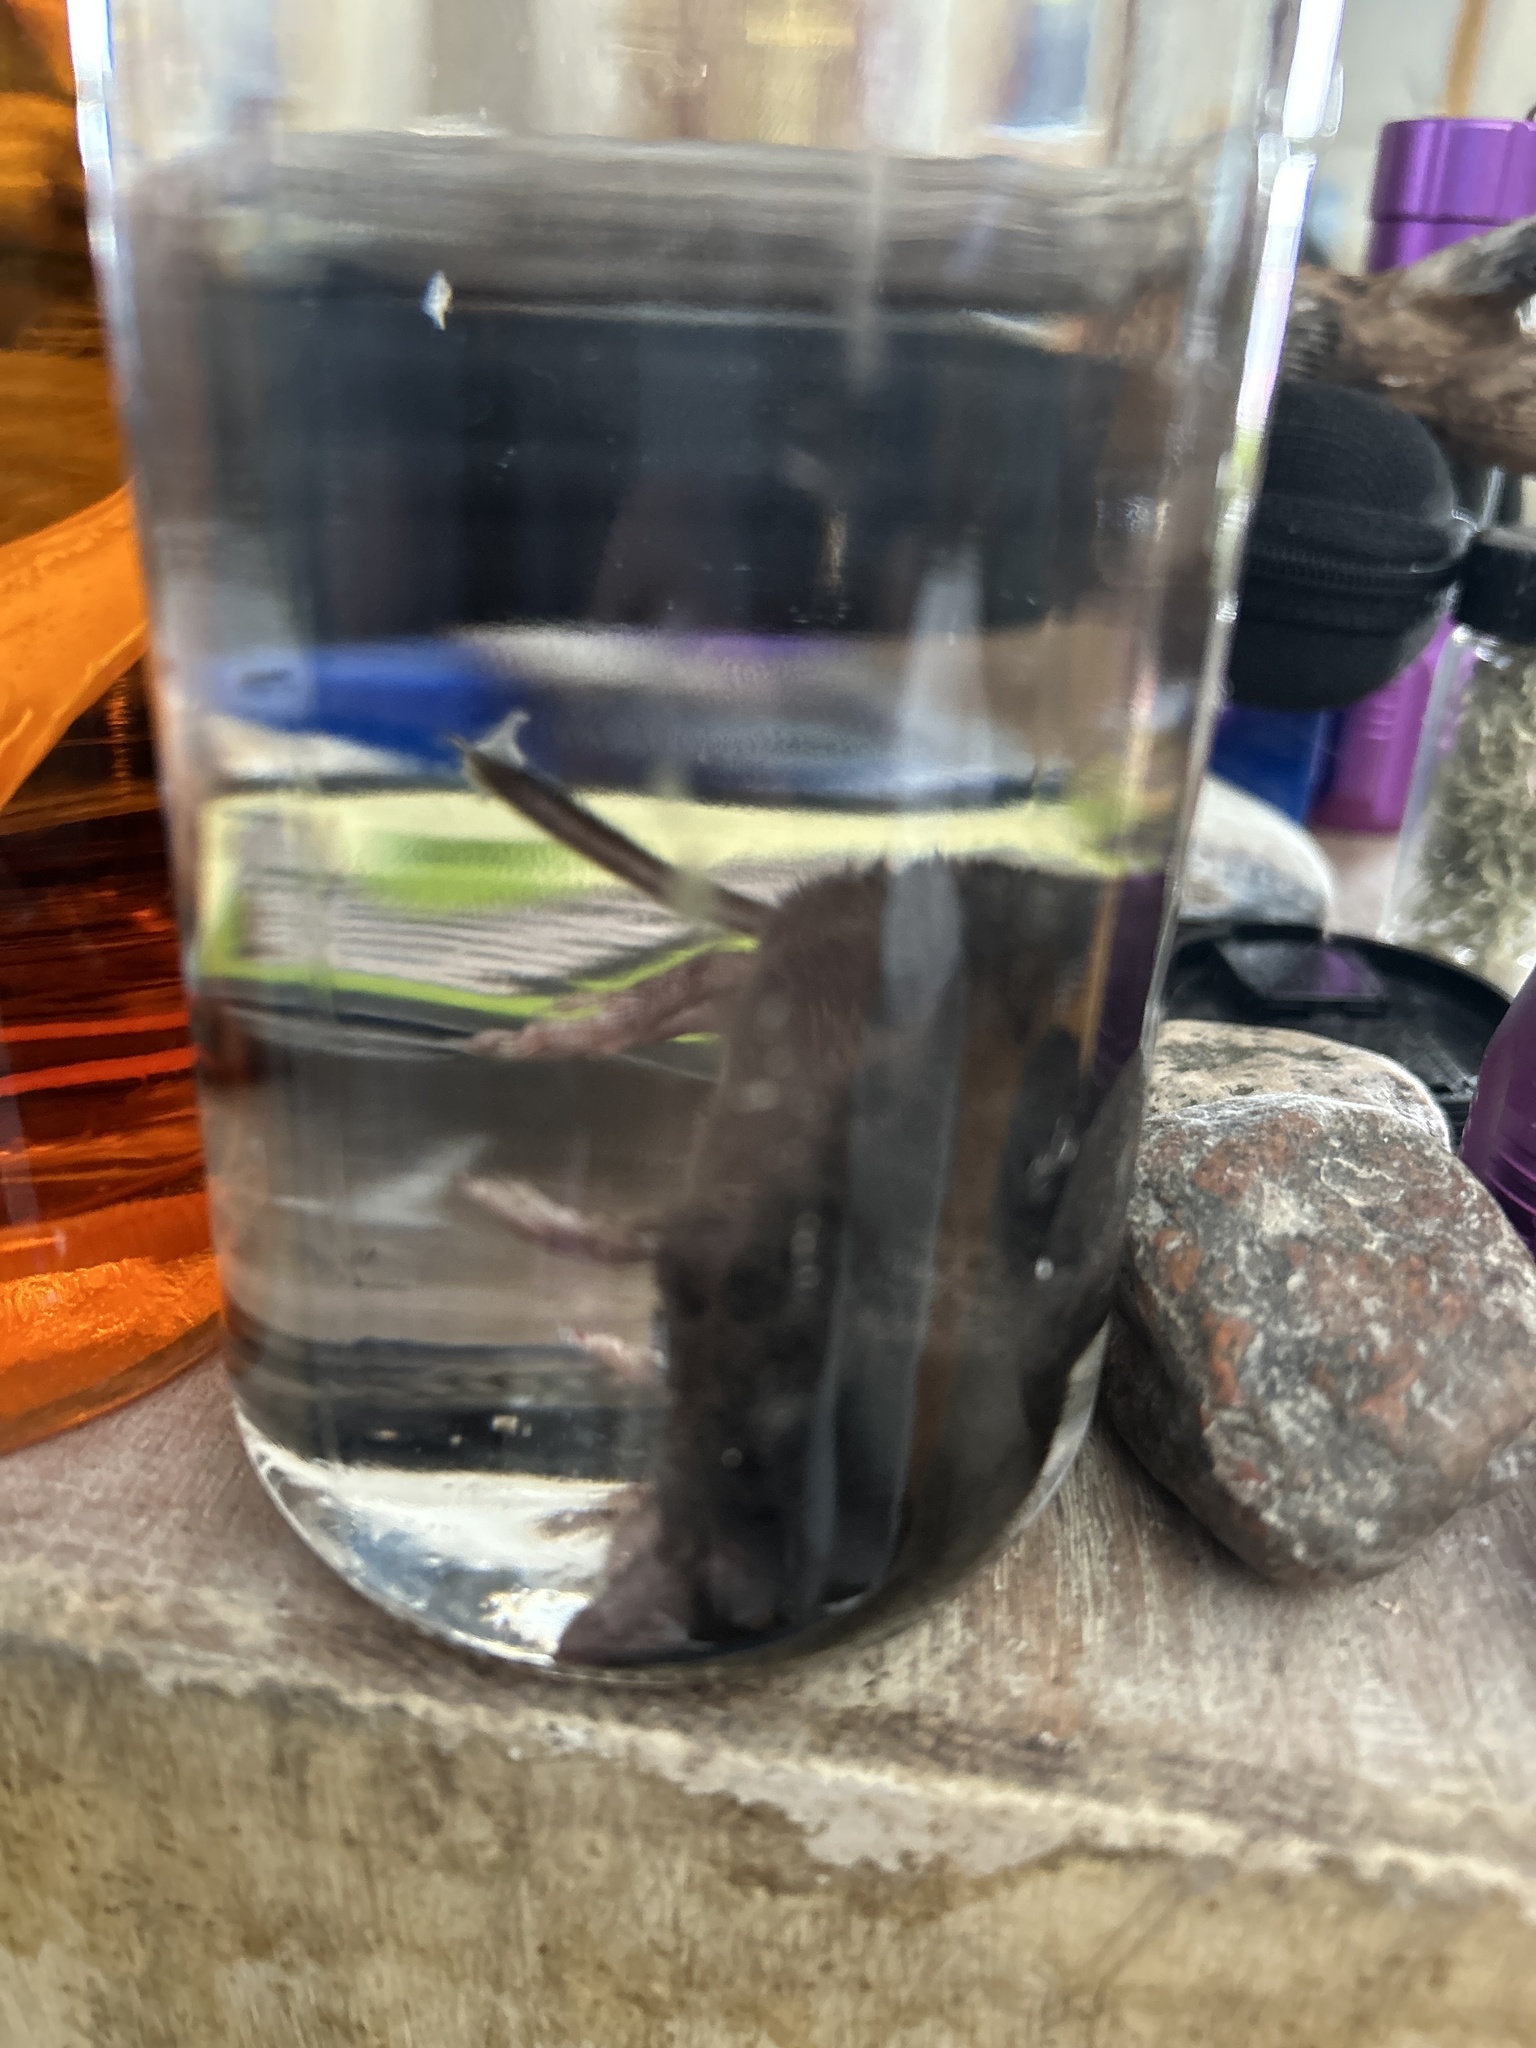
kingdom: Animalia
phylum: Chordata
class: Mammalia
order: Soricomorpha
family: Soricidae
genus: Blarina
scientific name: Blarina brevicauda
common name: Northern short-tailed shrew
